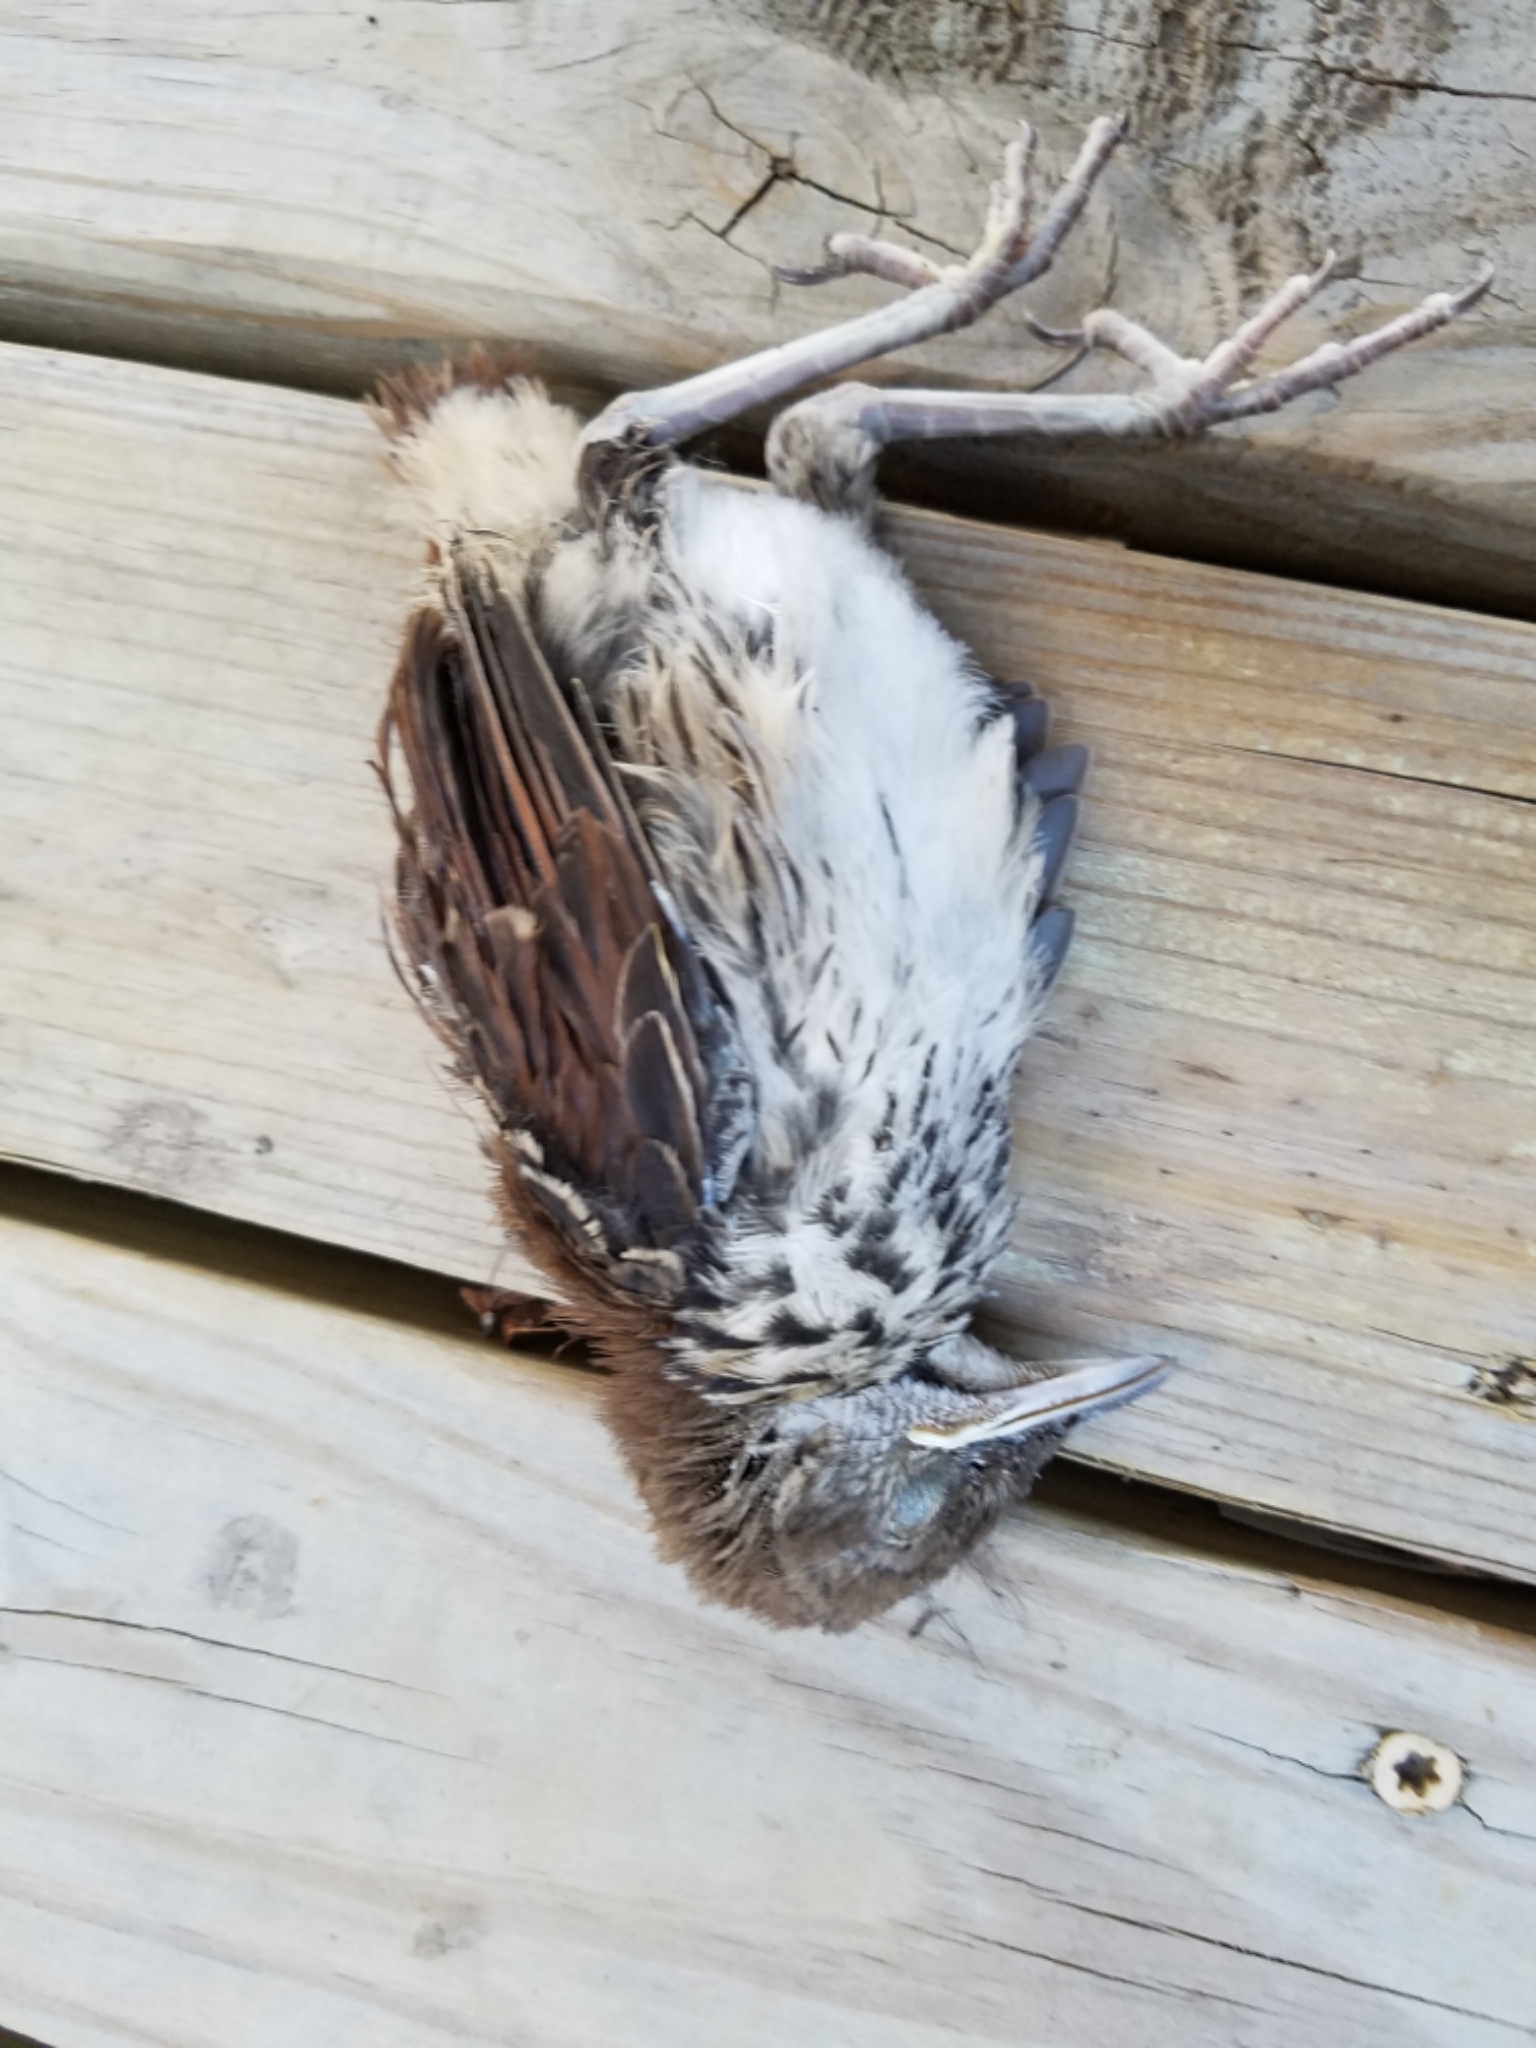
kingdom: Animalia
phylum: Chordata
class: Aves
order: Passeriformes
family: Mimidae
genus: Toxostoma
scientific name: Toxostoma rufum
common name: Brown thrasher
